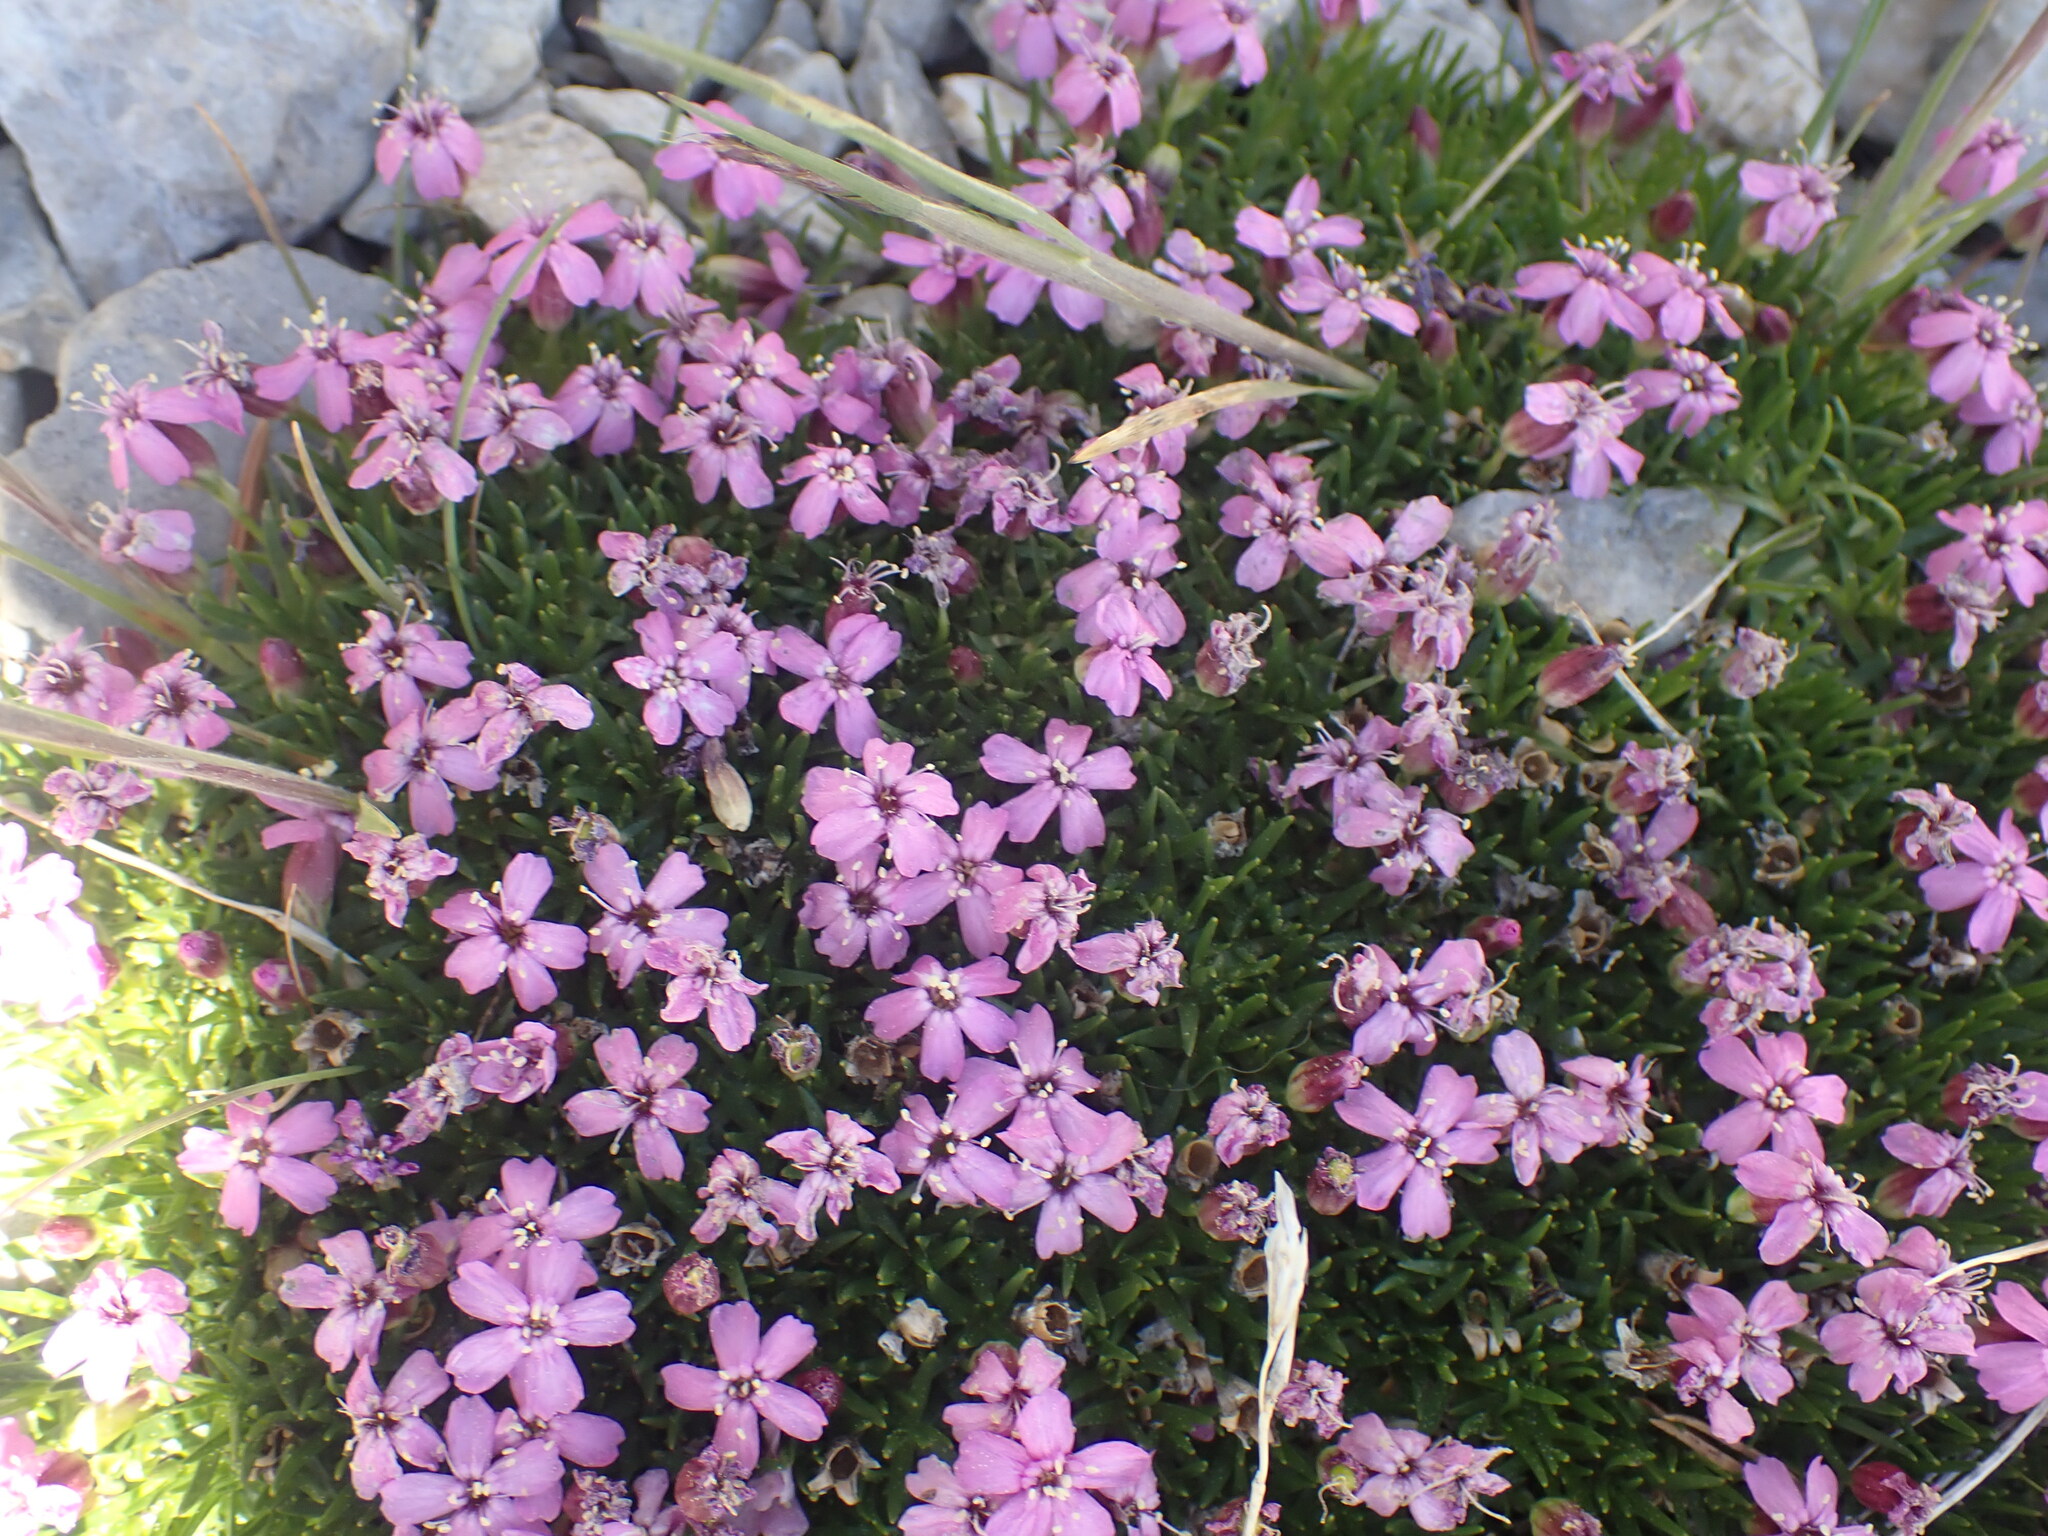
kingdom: Plantae
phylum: Tracheophyta
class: Magnoliopsida
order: Caryophyllales
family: Caryophyllaceae
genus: Silene
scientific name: Silene acaulis
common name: Moss campion
